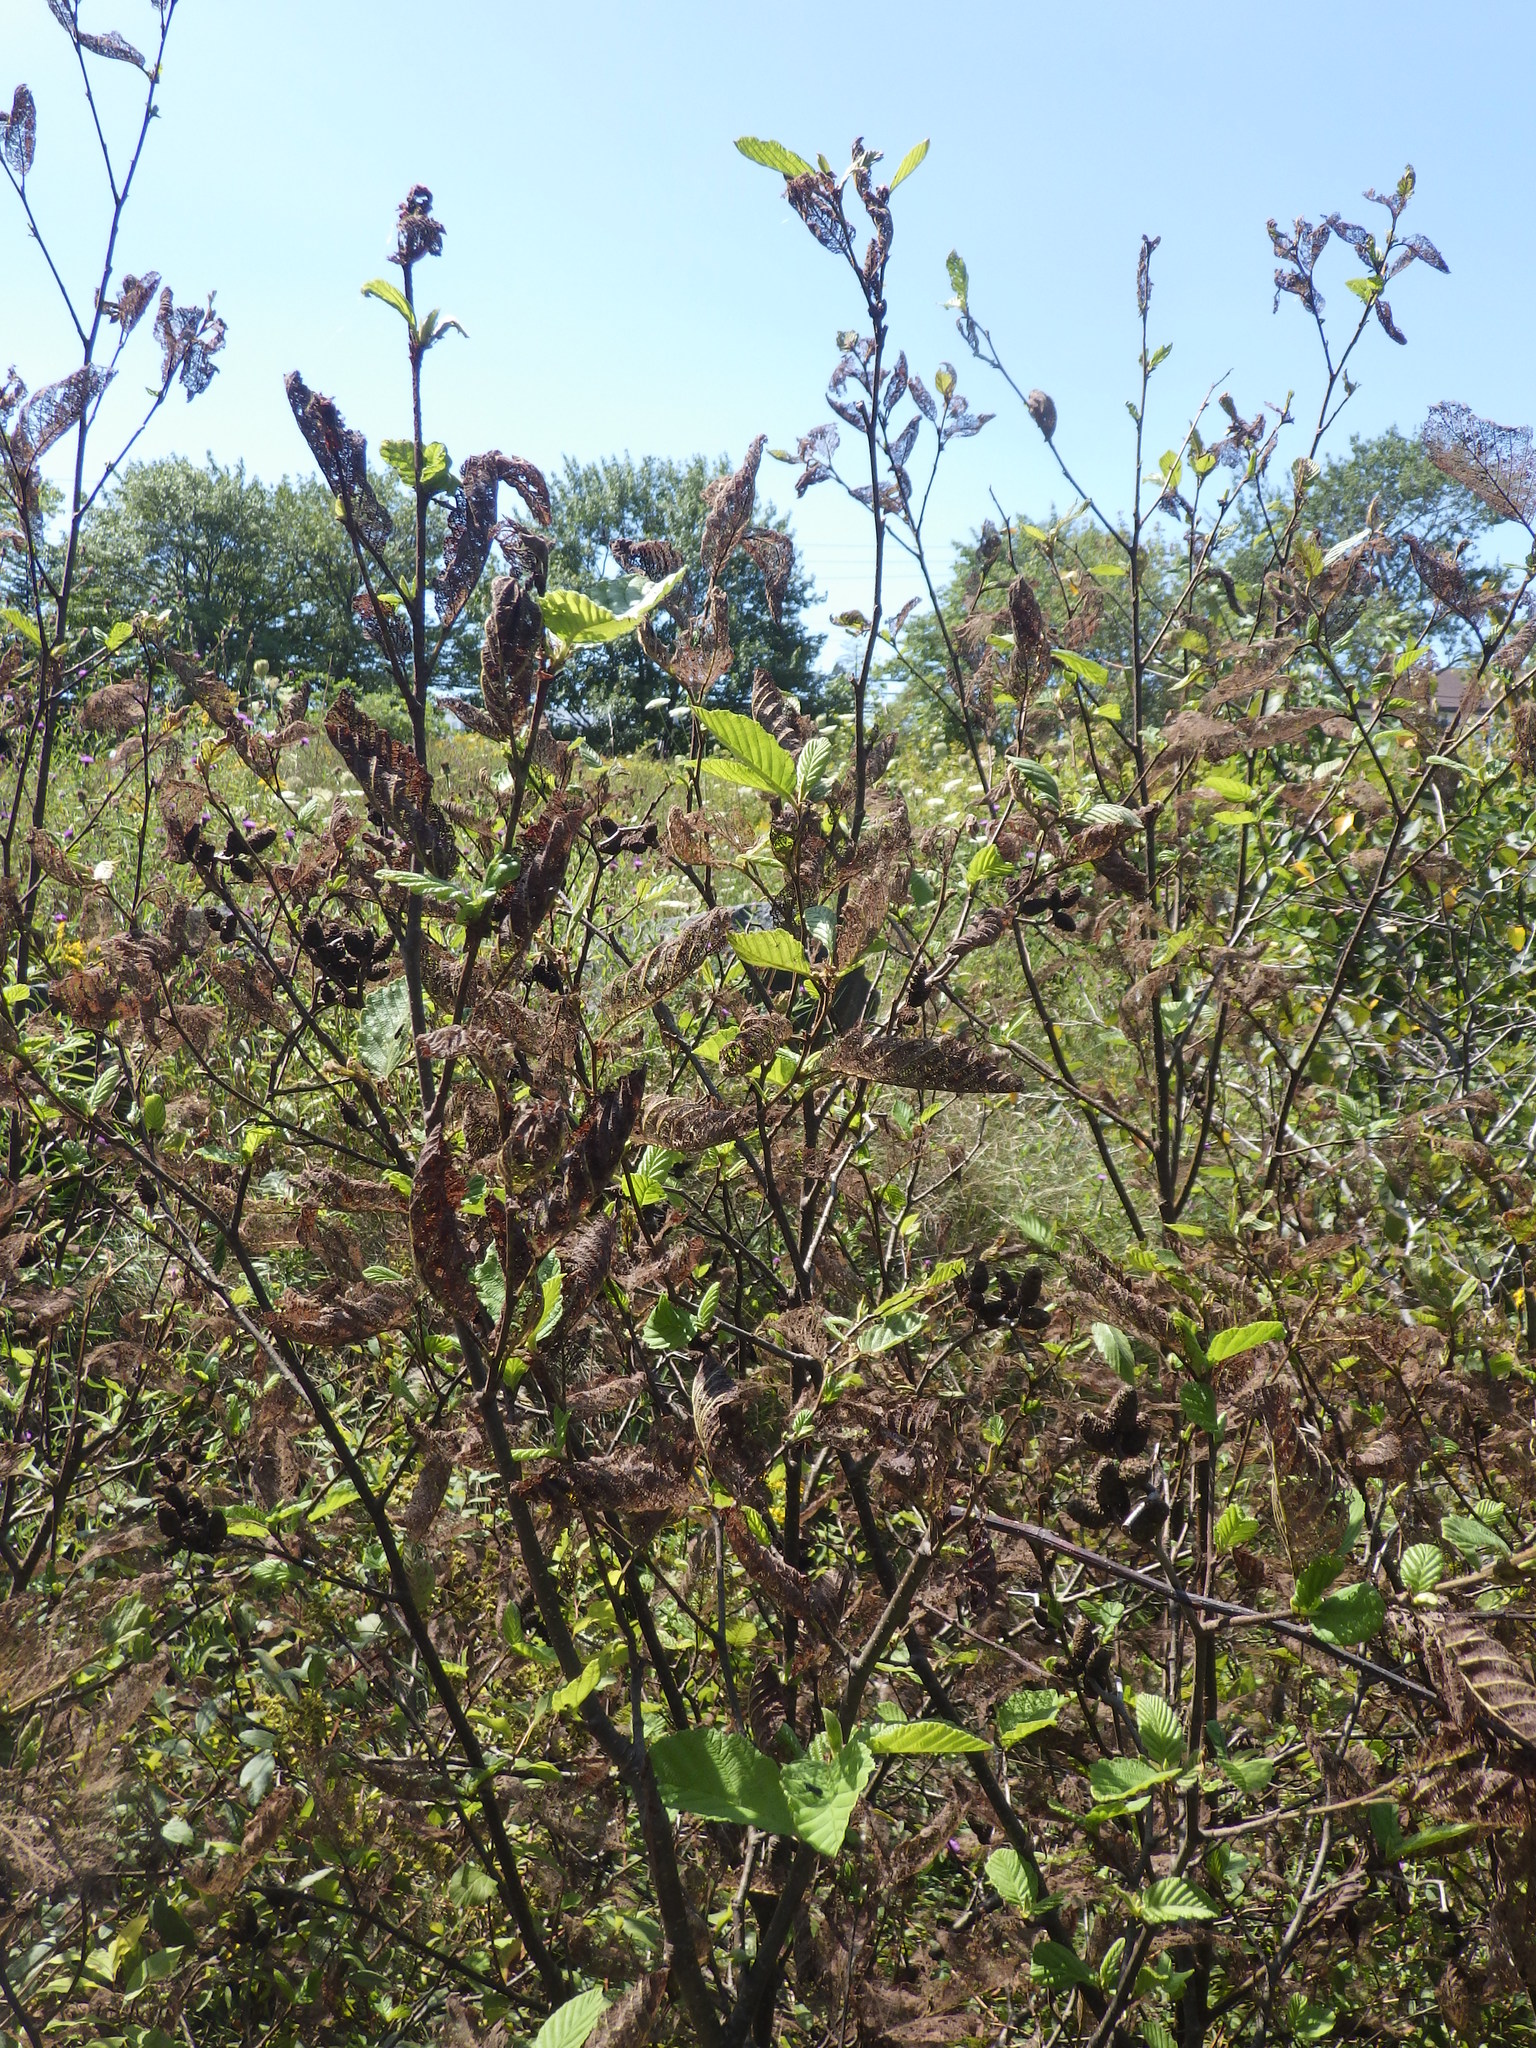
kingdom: Plantae
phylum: Tracheophyta
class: Magnoliopsida
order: Fagales
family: Betulaceae
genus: Alnus
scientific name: Alnus incana
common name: Grey alder
